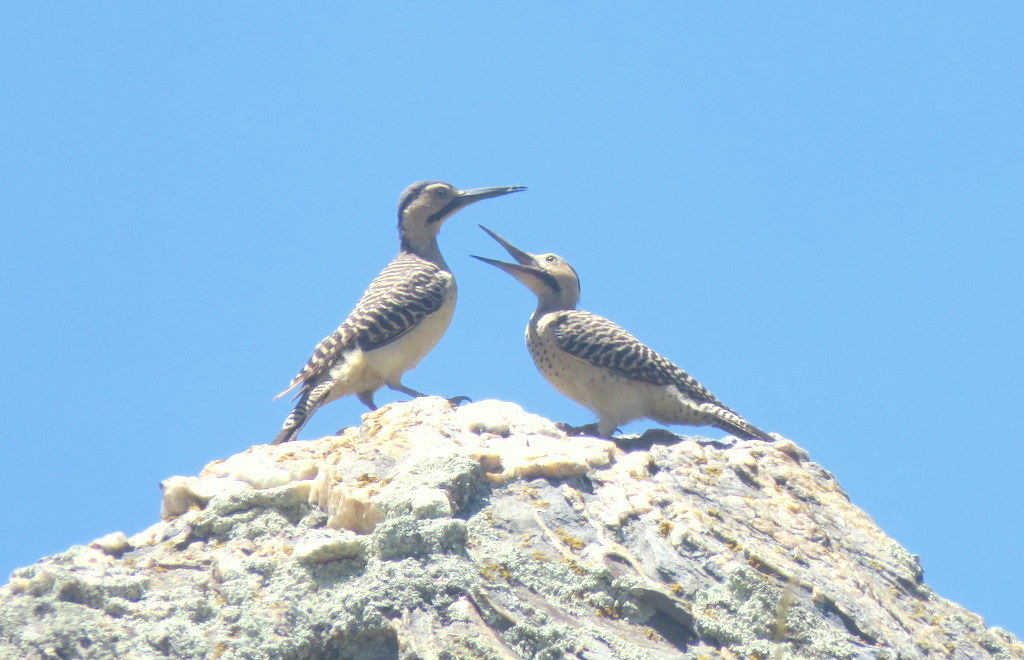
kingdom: Animalia
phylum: Chordata
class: Aves
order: Piciformes
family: Picidae
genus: Colaptes
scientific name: Colaptes rupicola
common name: Andean flicker
